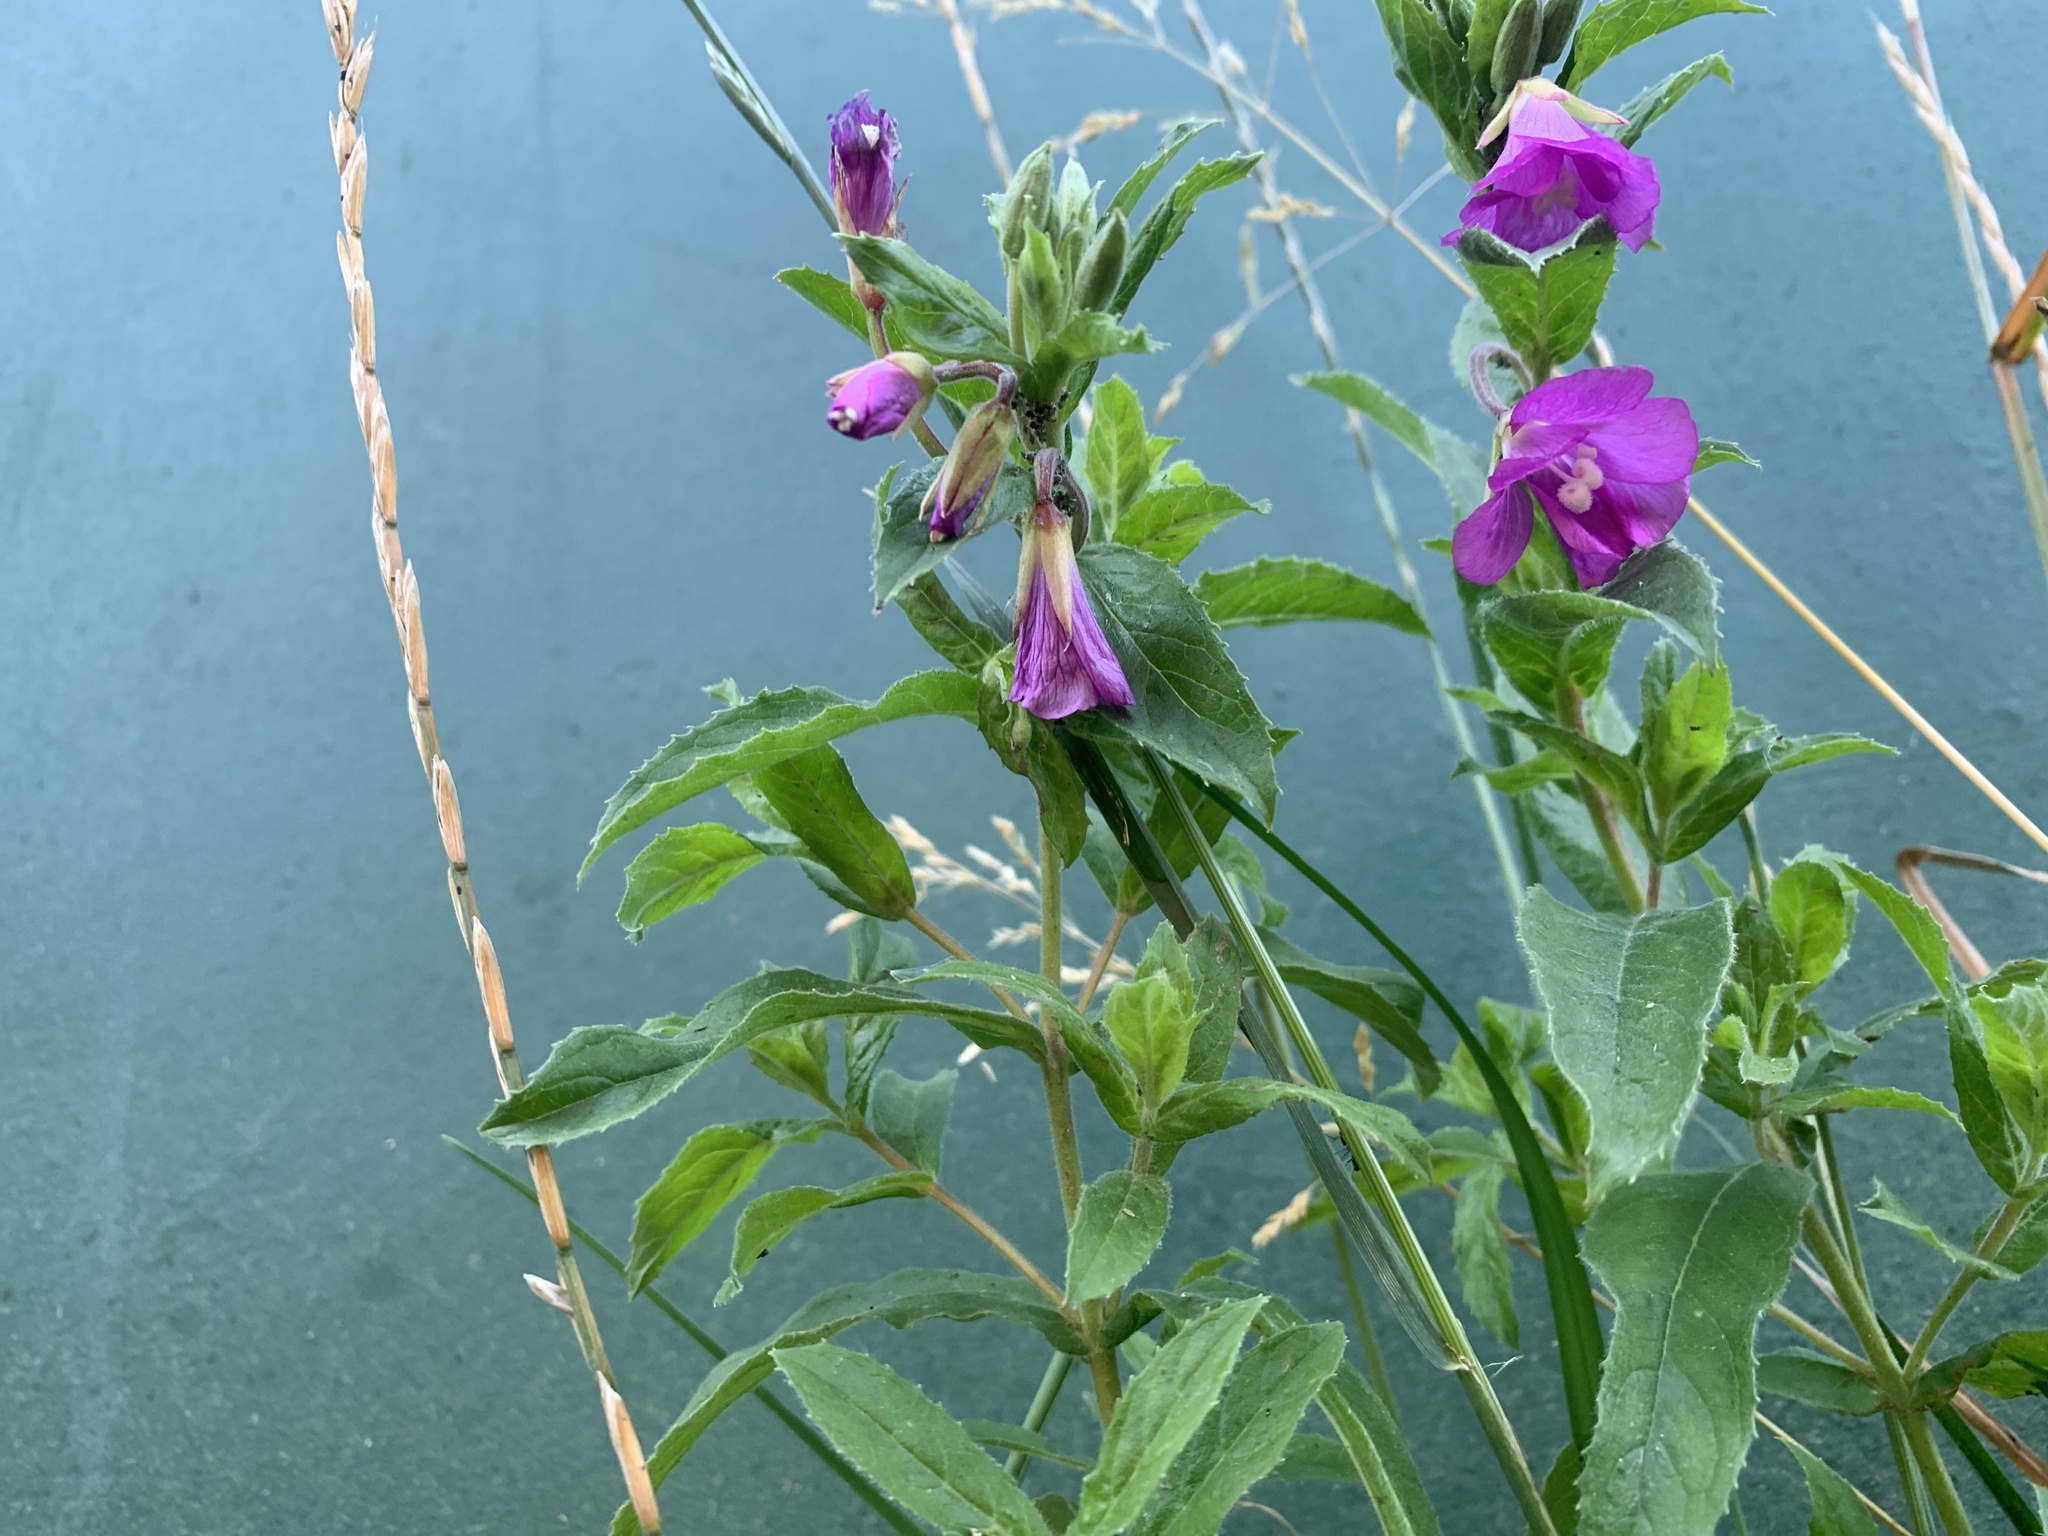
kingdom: Plantae
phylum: Tracheophyta
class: Magnoliopsida
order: Myrtales
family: Onagraceae
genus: Epilobium
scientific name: Epilobium hirsutum
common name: Great willowherb
